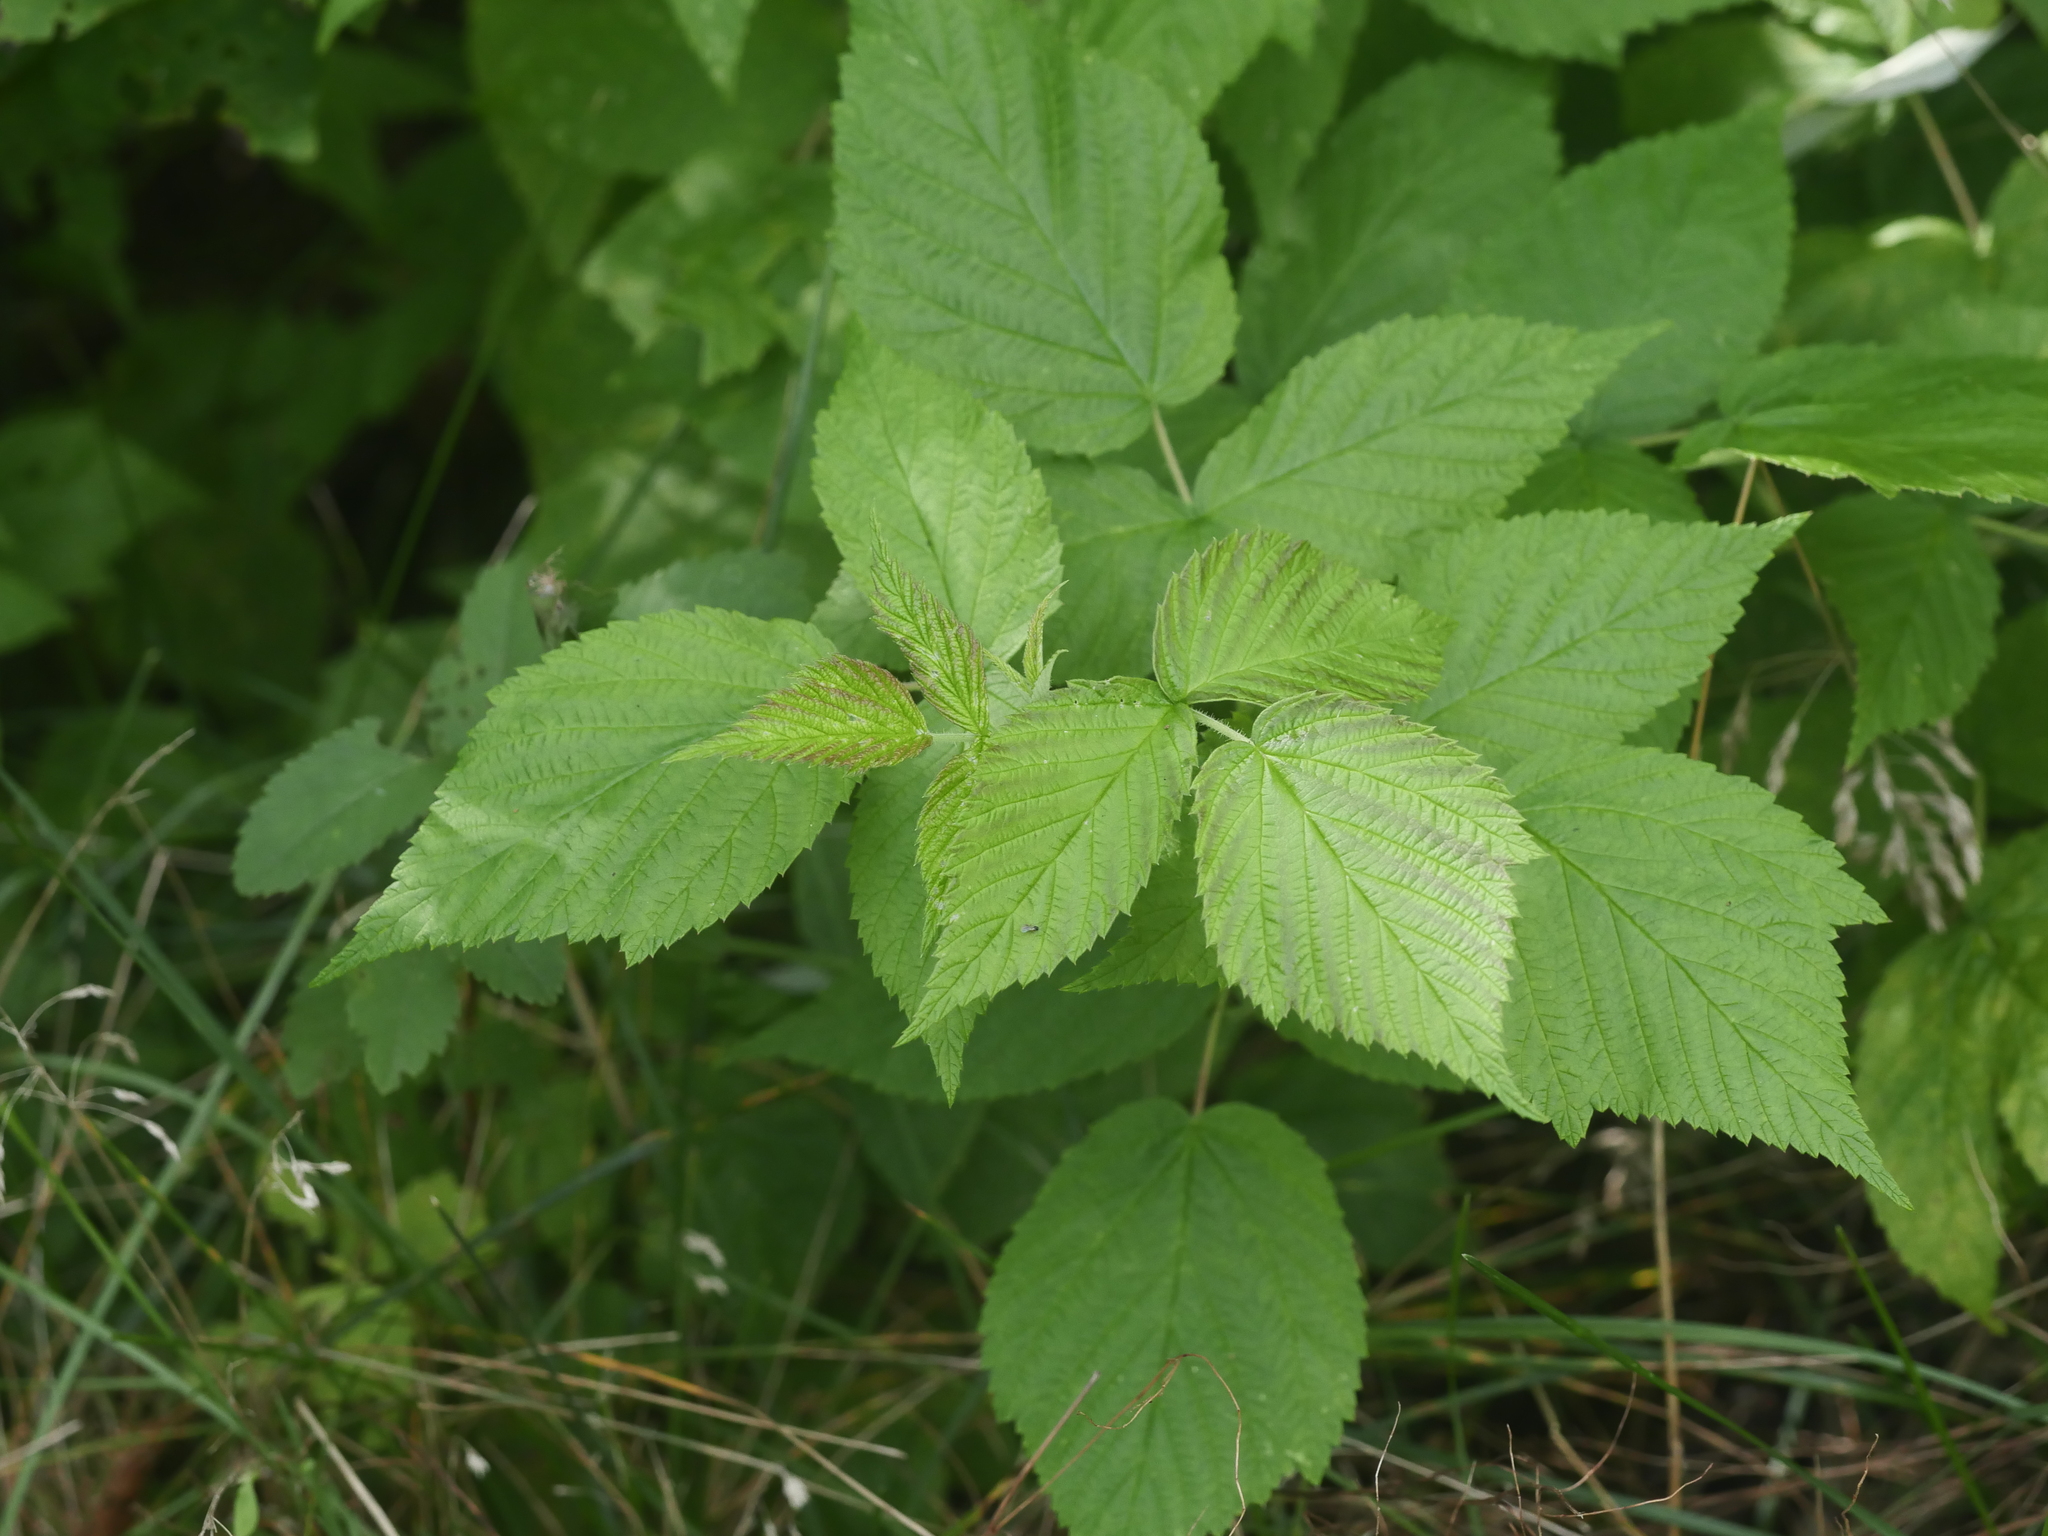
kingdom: Plantae
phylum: Tracheophyta
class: Magnoliopsida
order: Rosales
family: Rosaceae
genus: Rubus
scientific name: Rubus idaeus
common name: Raspberry
